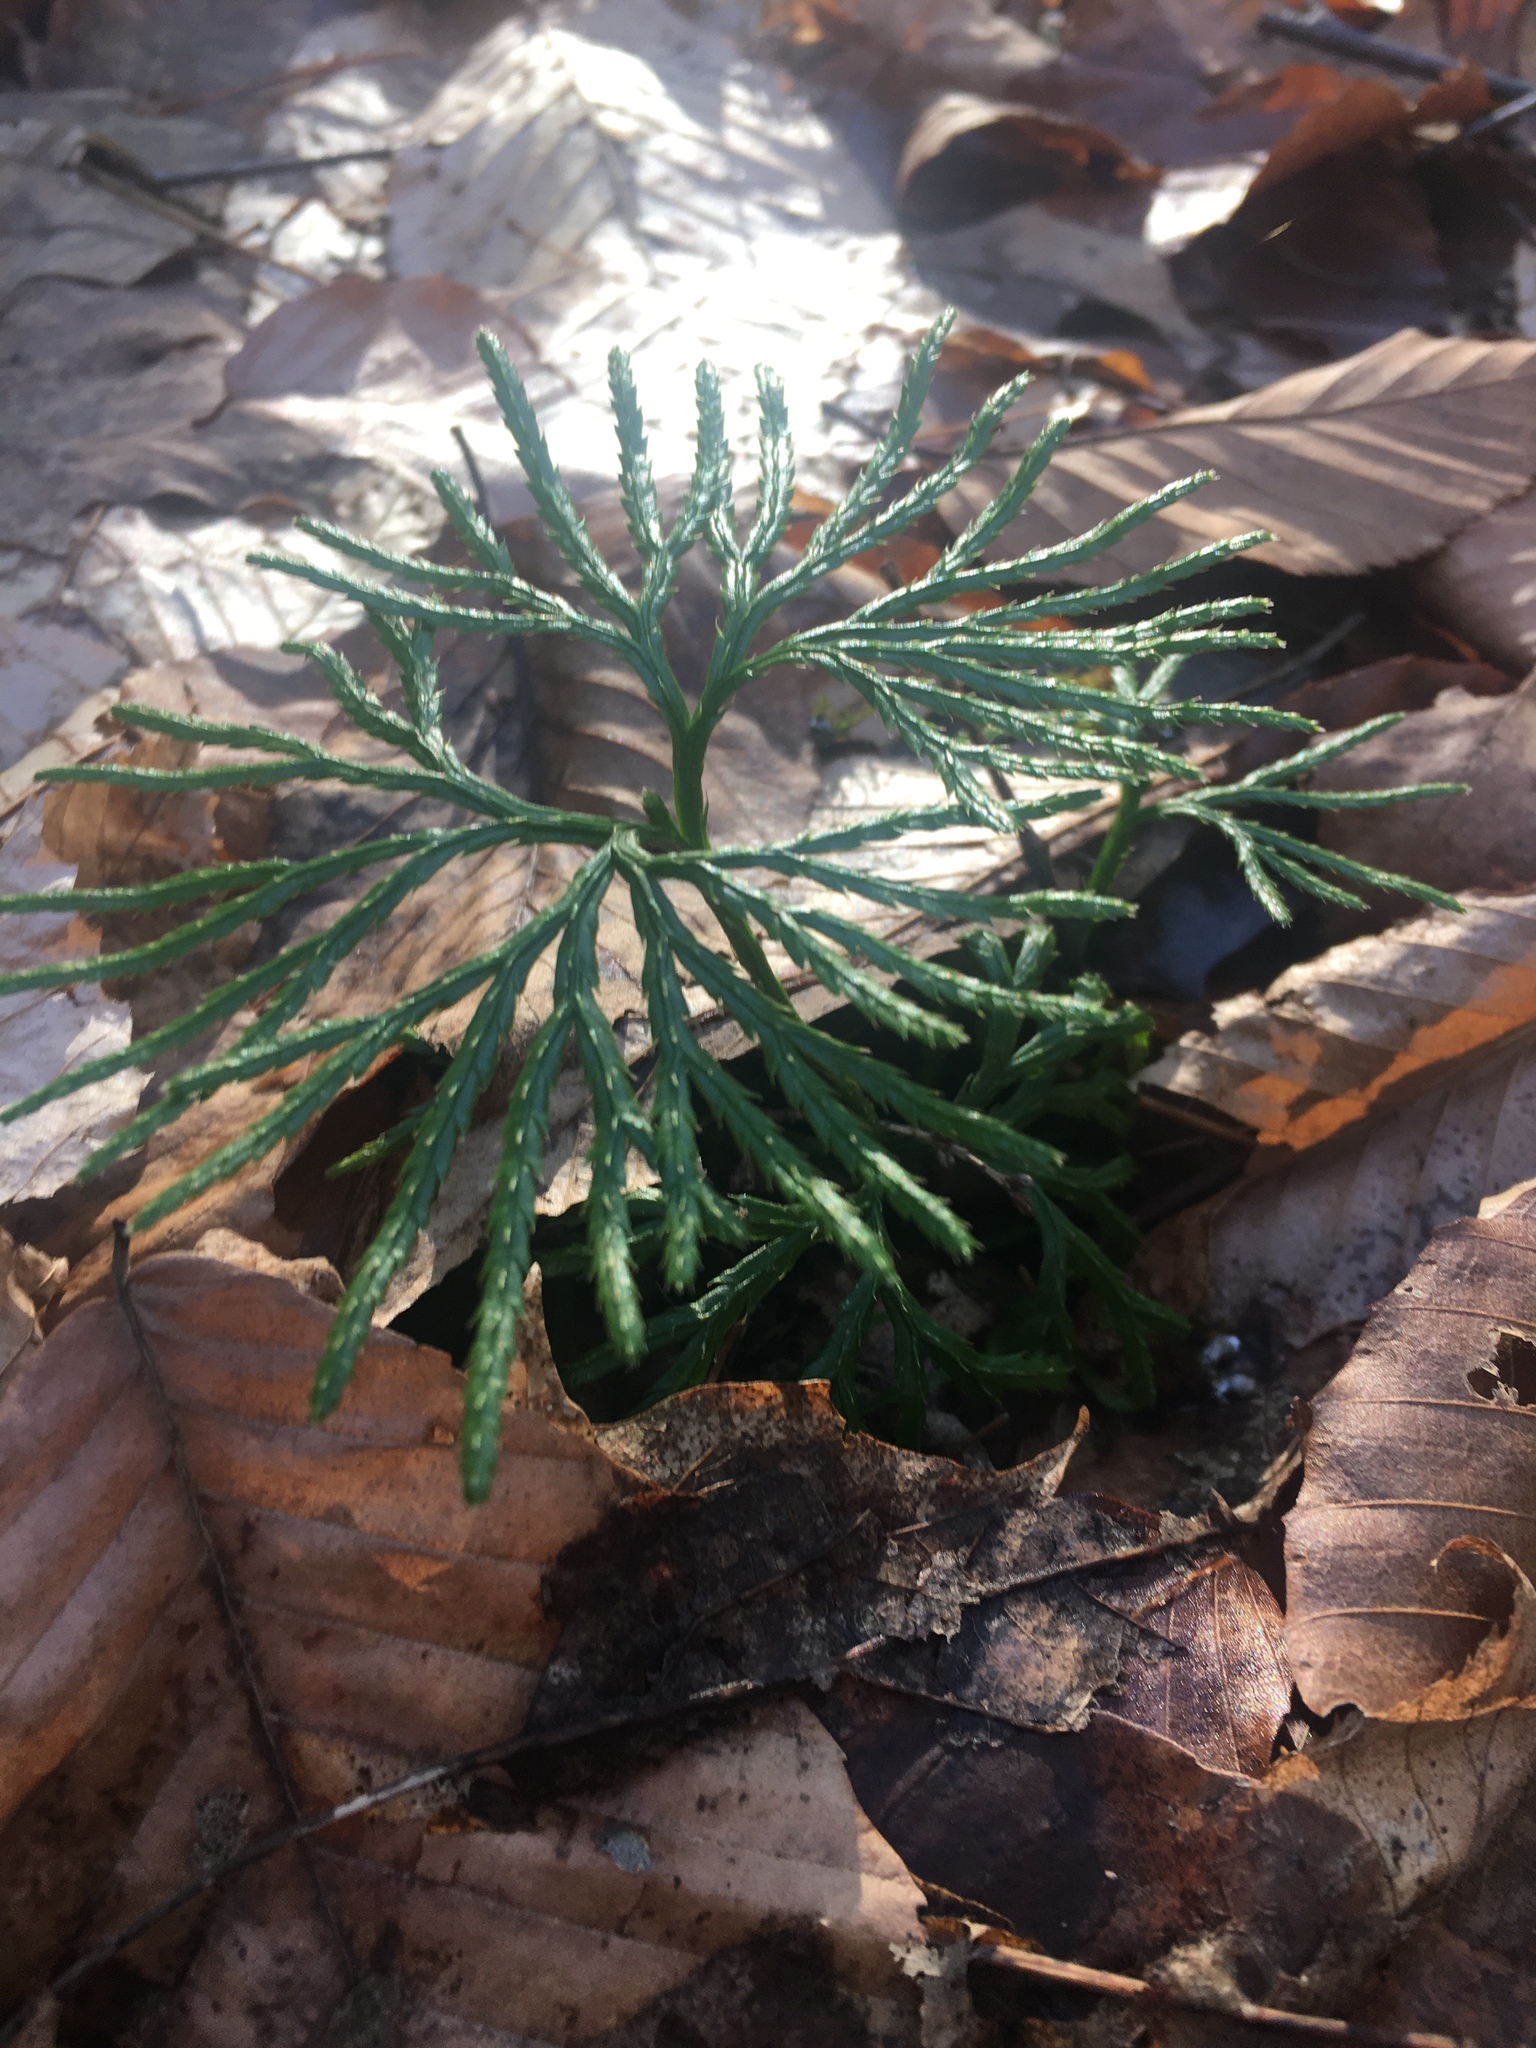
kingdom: Plantae
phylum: Tracheophyta
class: Lycopodiopsida
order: Lycopodiales
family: Lycopodiaceae
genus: Diphasiastrum
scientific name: Diphasiastrum digitatum
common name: Southern running-pine
